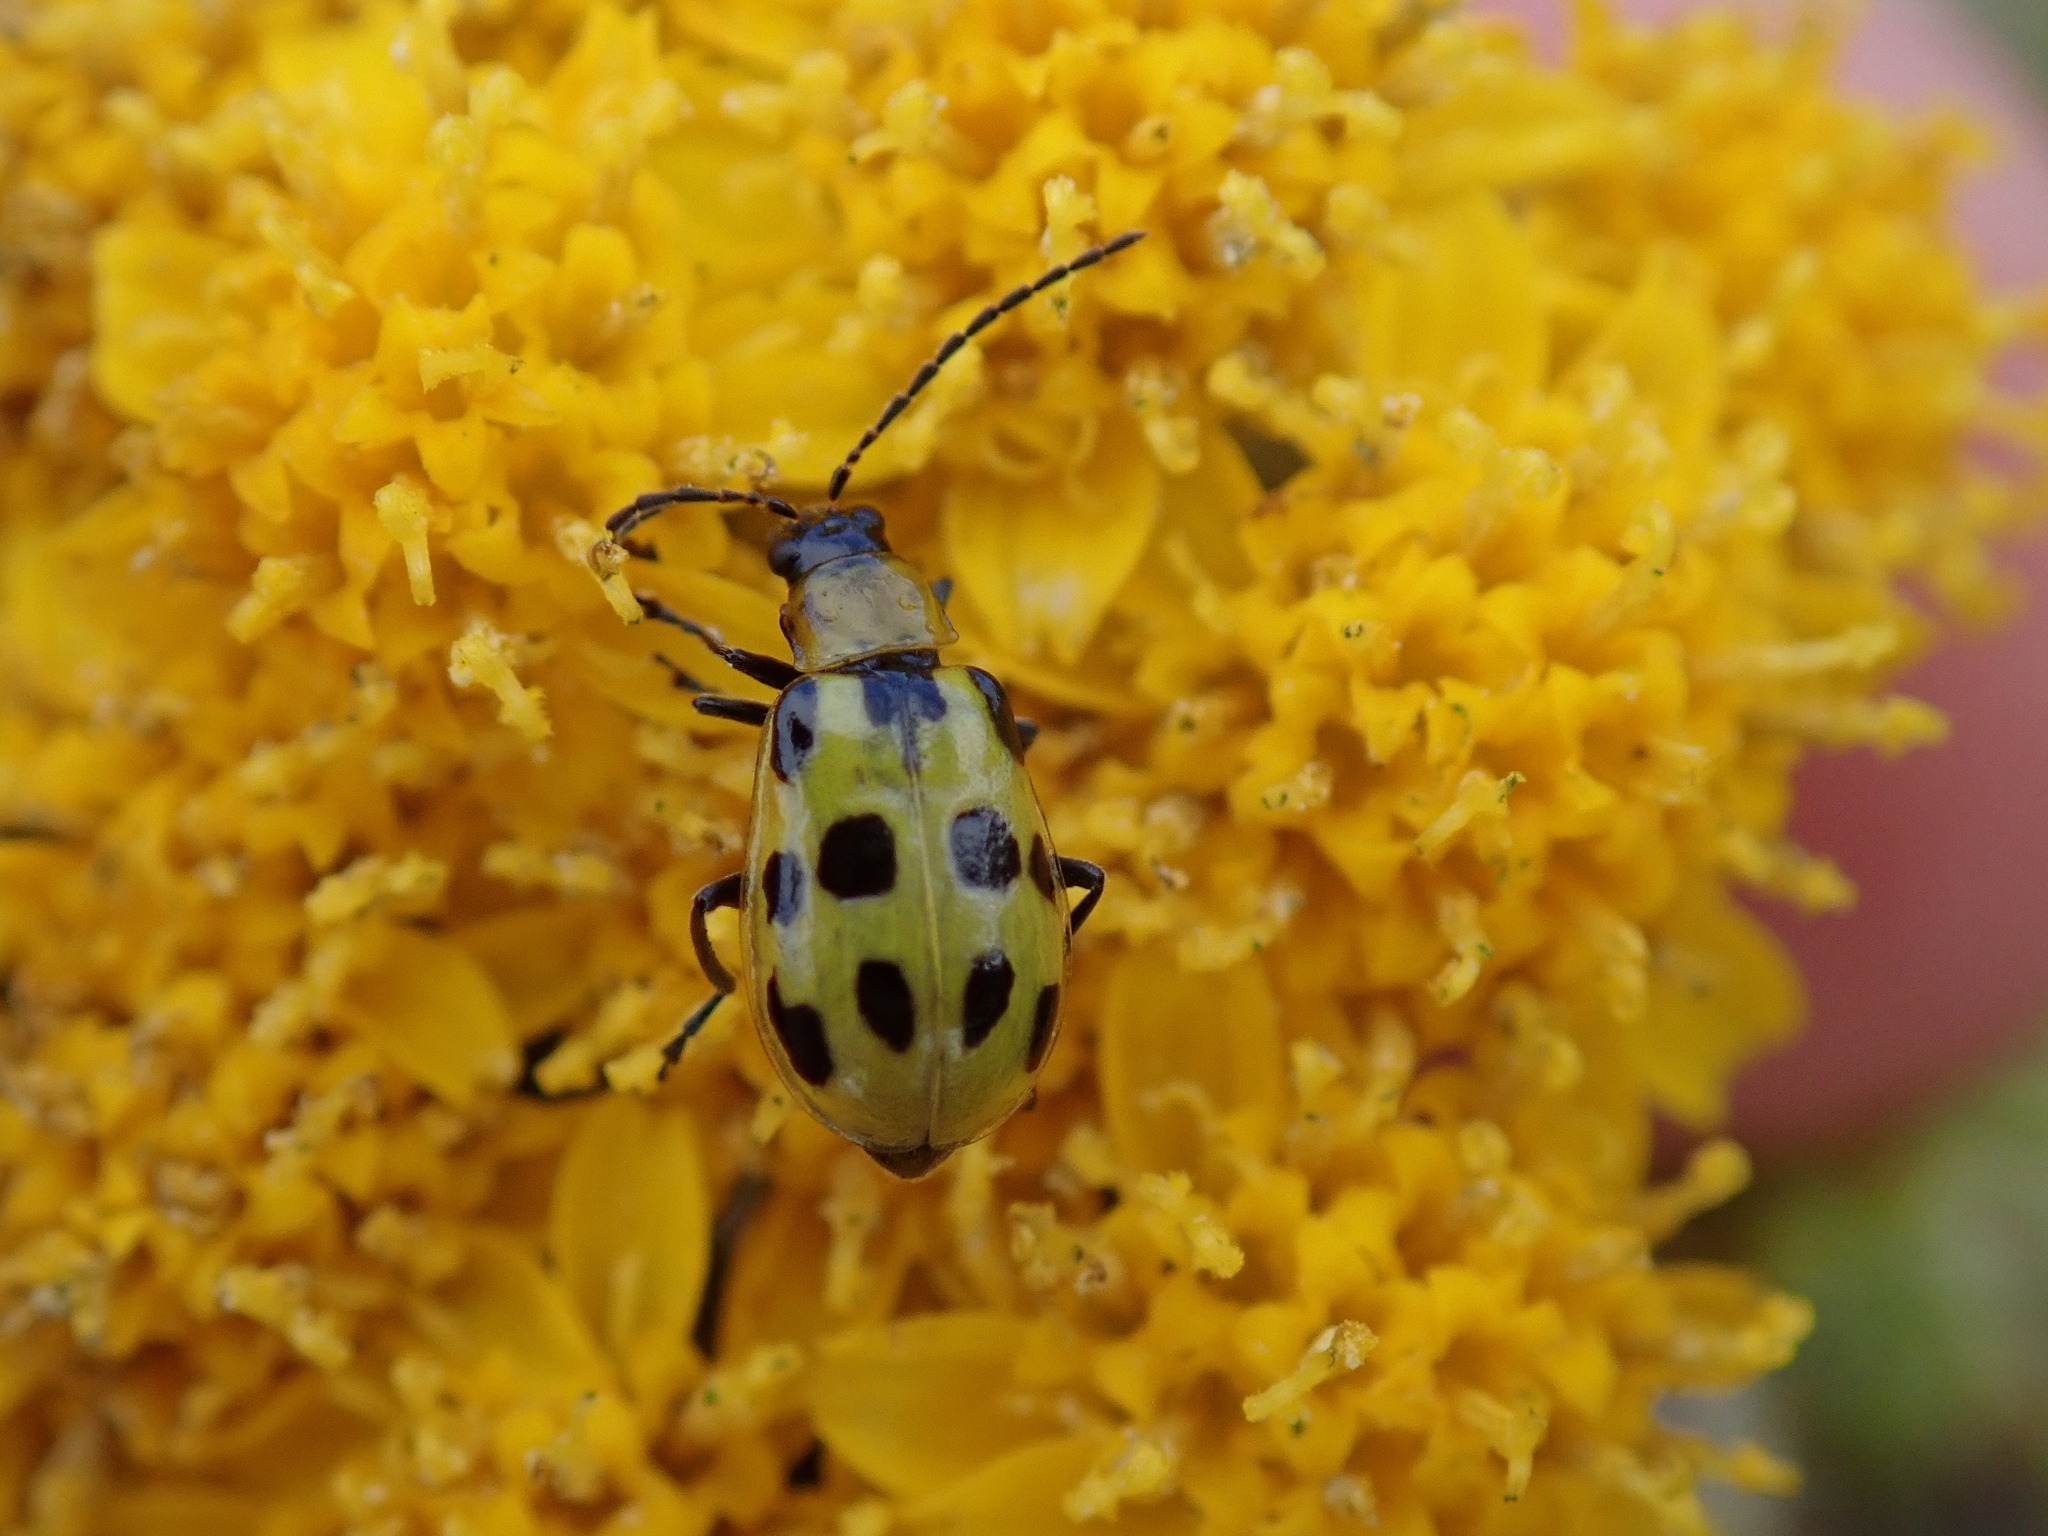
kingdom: Animalia
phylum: Arthropoda
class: Insecta
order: Coleoptera
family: Chrysomelidae
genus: Diabrotica
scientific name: Diabrotica undecimpunctata
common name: Spotted cucumber beetle
